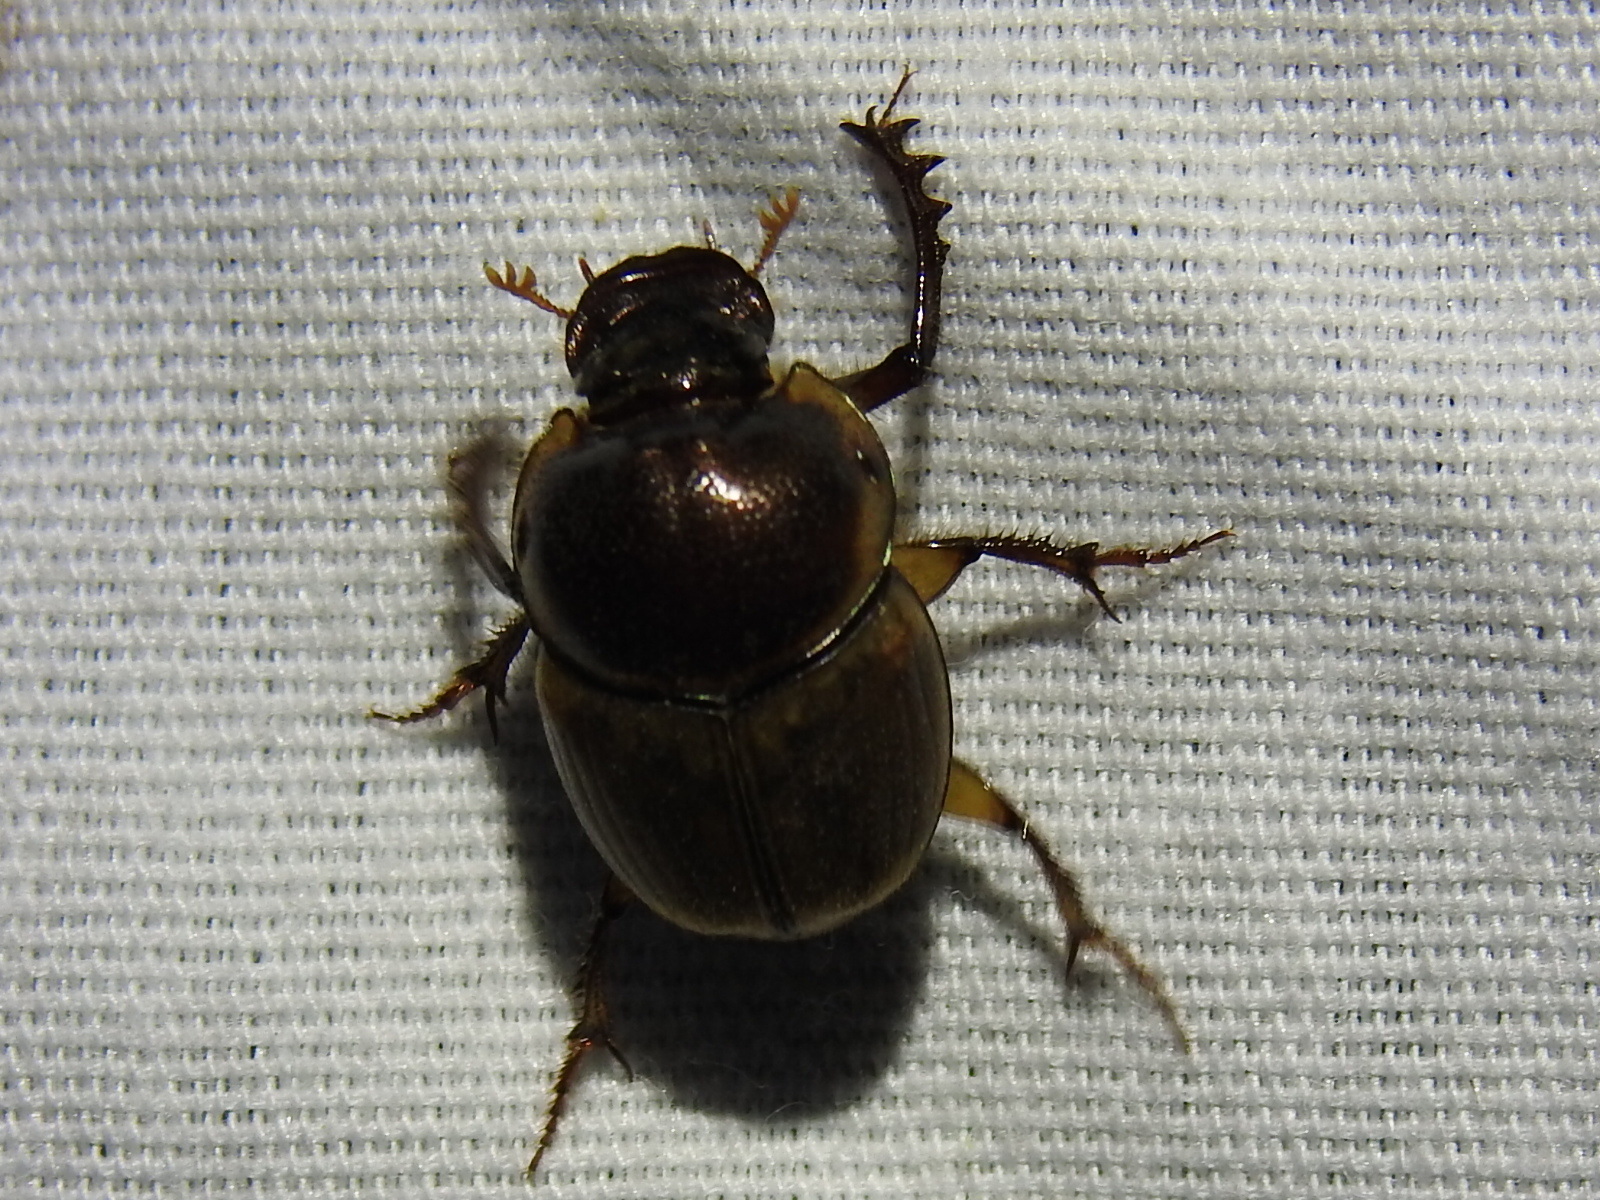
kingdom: Animalia
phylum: Arthropoda
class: Insecta
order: Coleoptera
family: Scarabaeidae
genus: Digitonthophagus
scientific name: Digitonthophagus gazella
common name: Brown dung beetle
